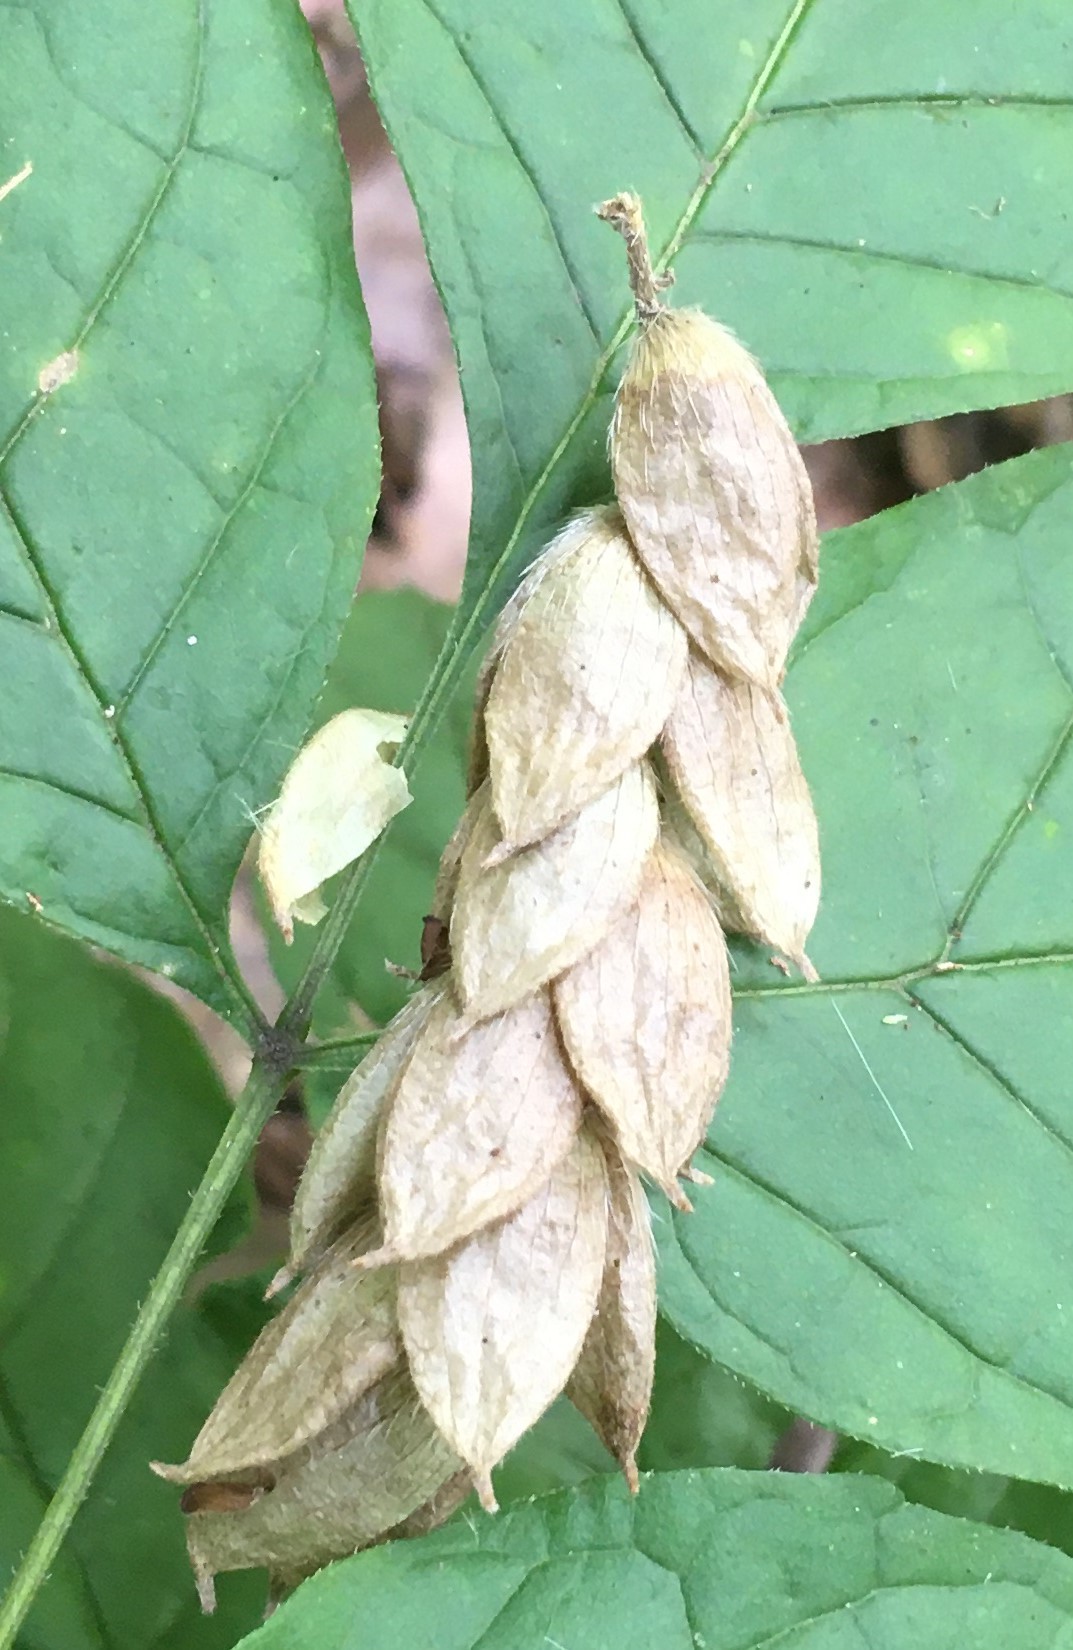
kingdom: Plantae
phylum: Tracheophyta
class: Magnoliopsida
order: Fagales
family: Betulaceae
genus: Ostrya
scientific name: Ostrya virginiana
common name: Ironwood
